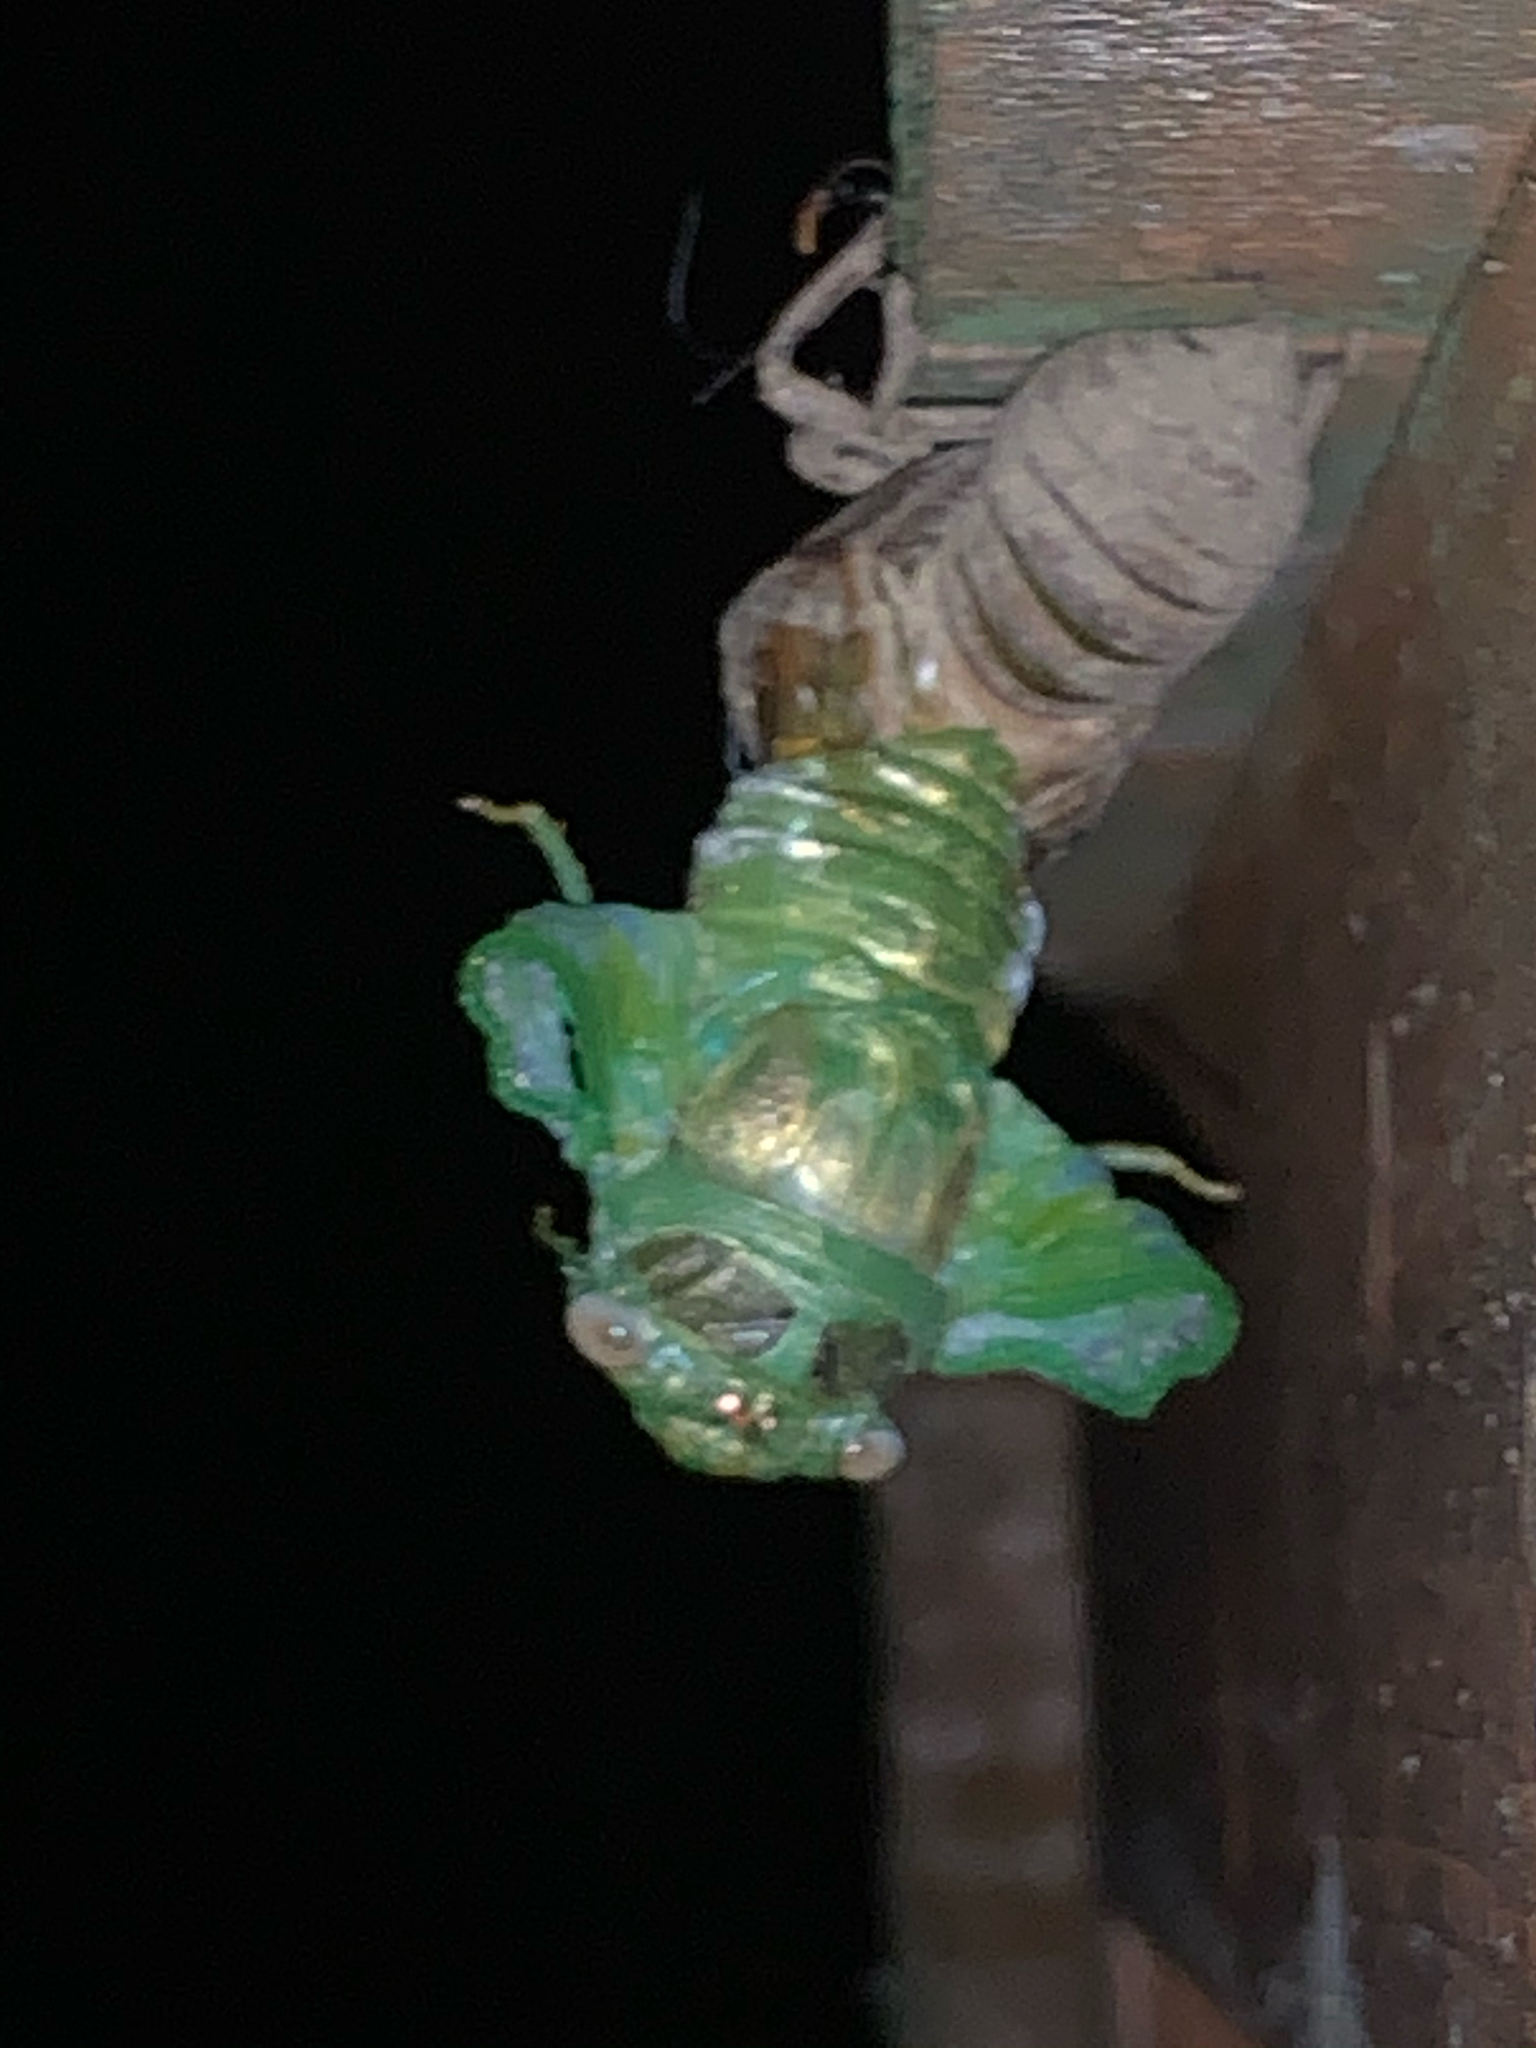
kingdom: Animalia
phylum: Arthropoda
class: Insecta
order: Hemiptera
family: Cicadidae
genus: Diceroprocta
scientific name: Diceroprocta grossa
